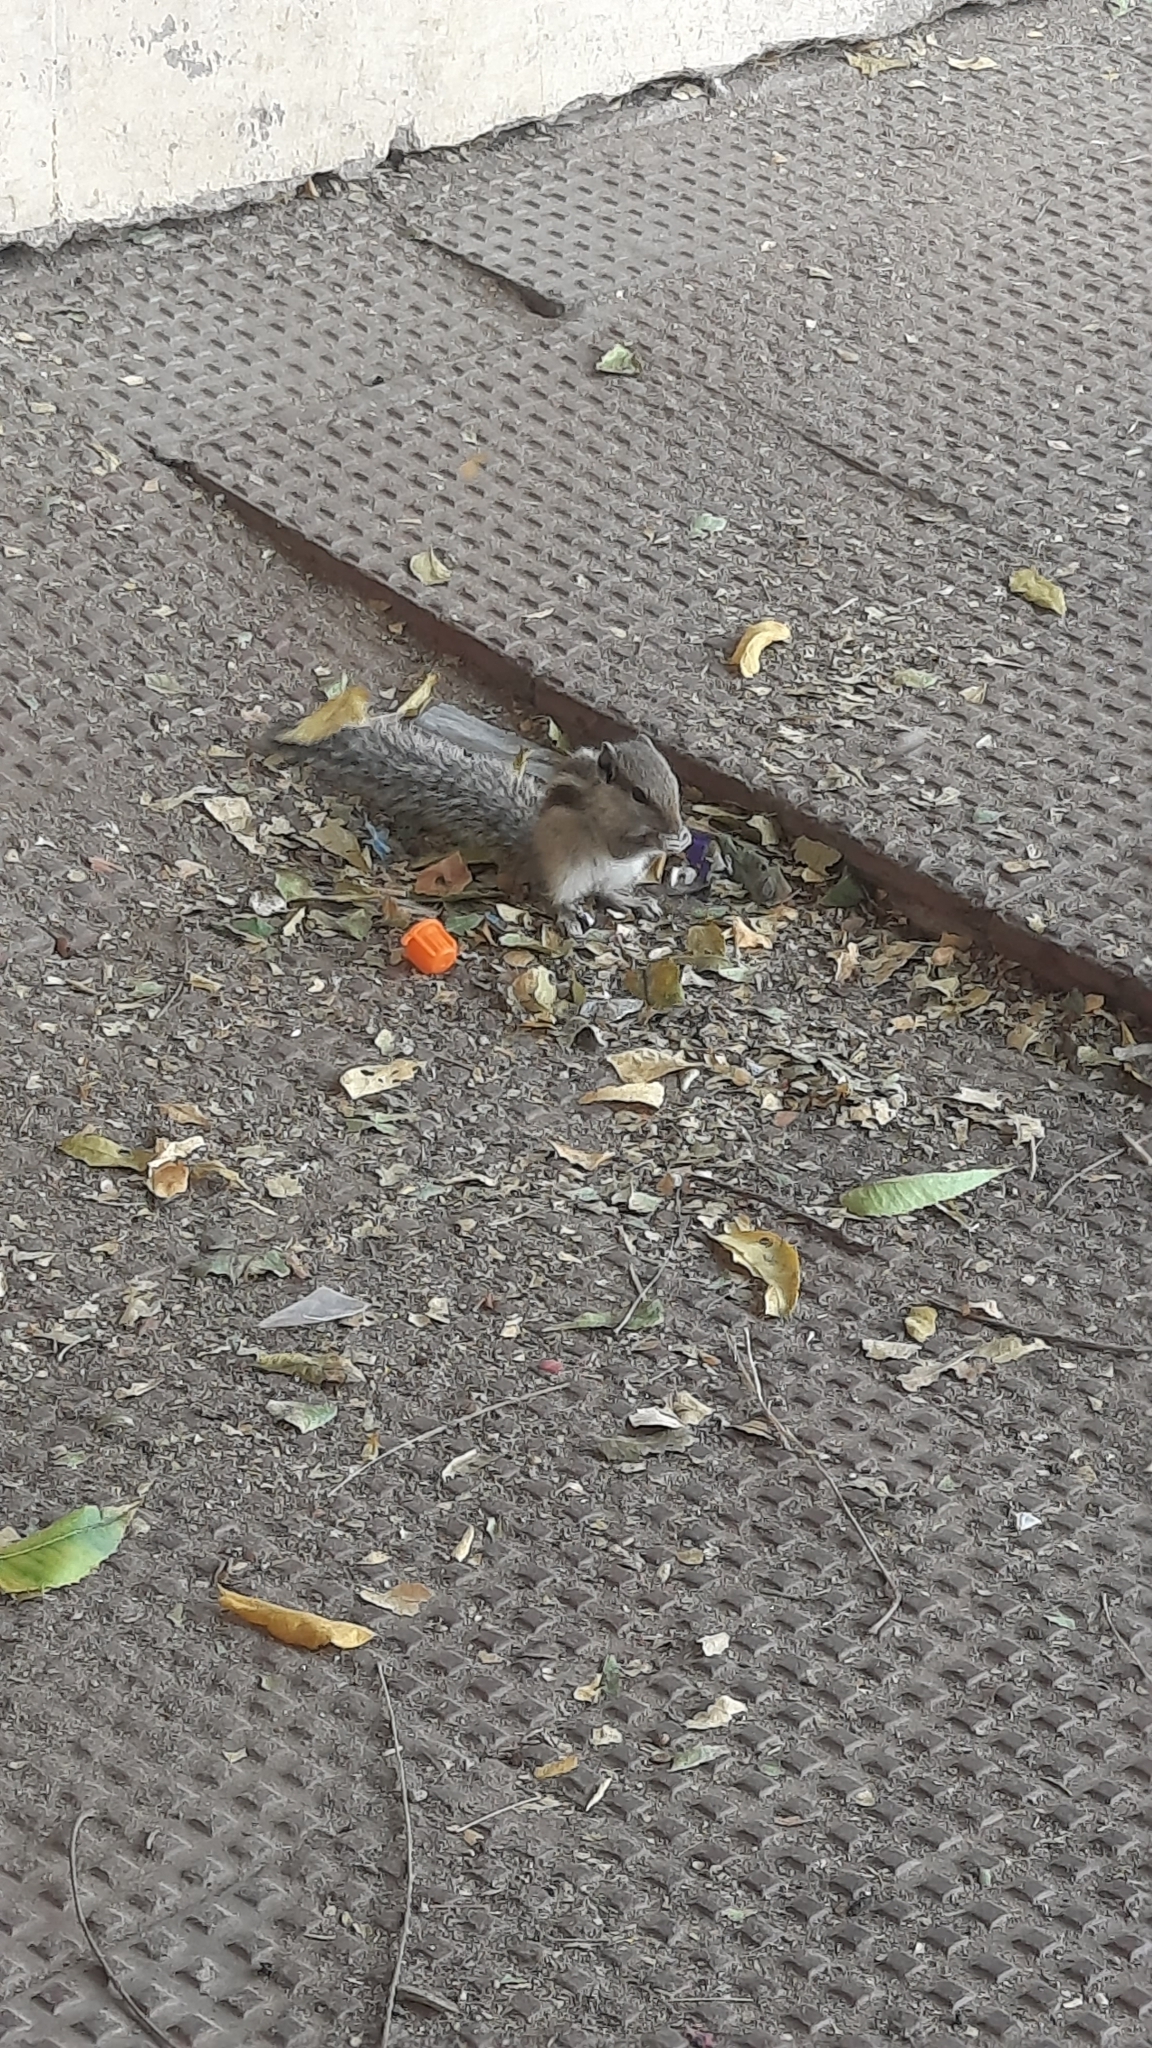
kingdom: Animalia
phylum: Chordata
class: Mammalia
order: Rodentia
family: Sciuridae
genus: Funambulus
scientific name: Funambulus pennantii
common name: Northern palm squirrel
